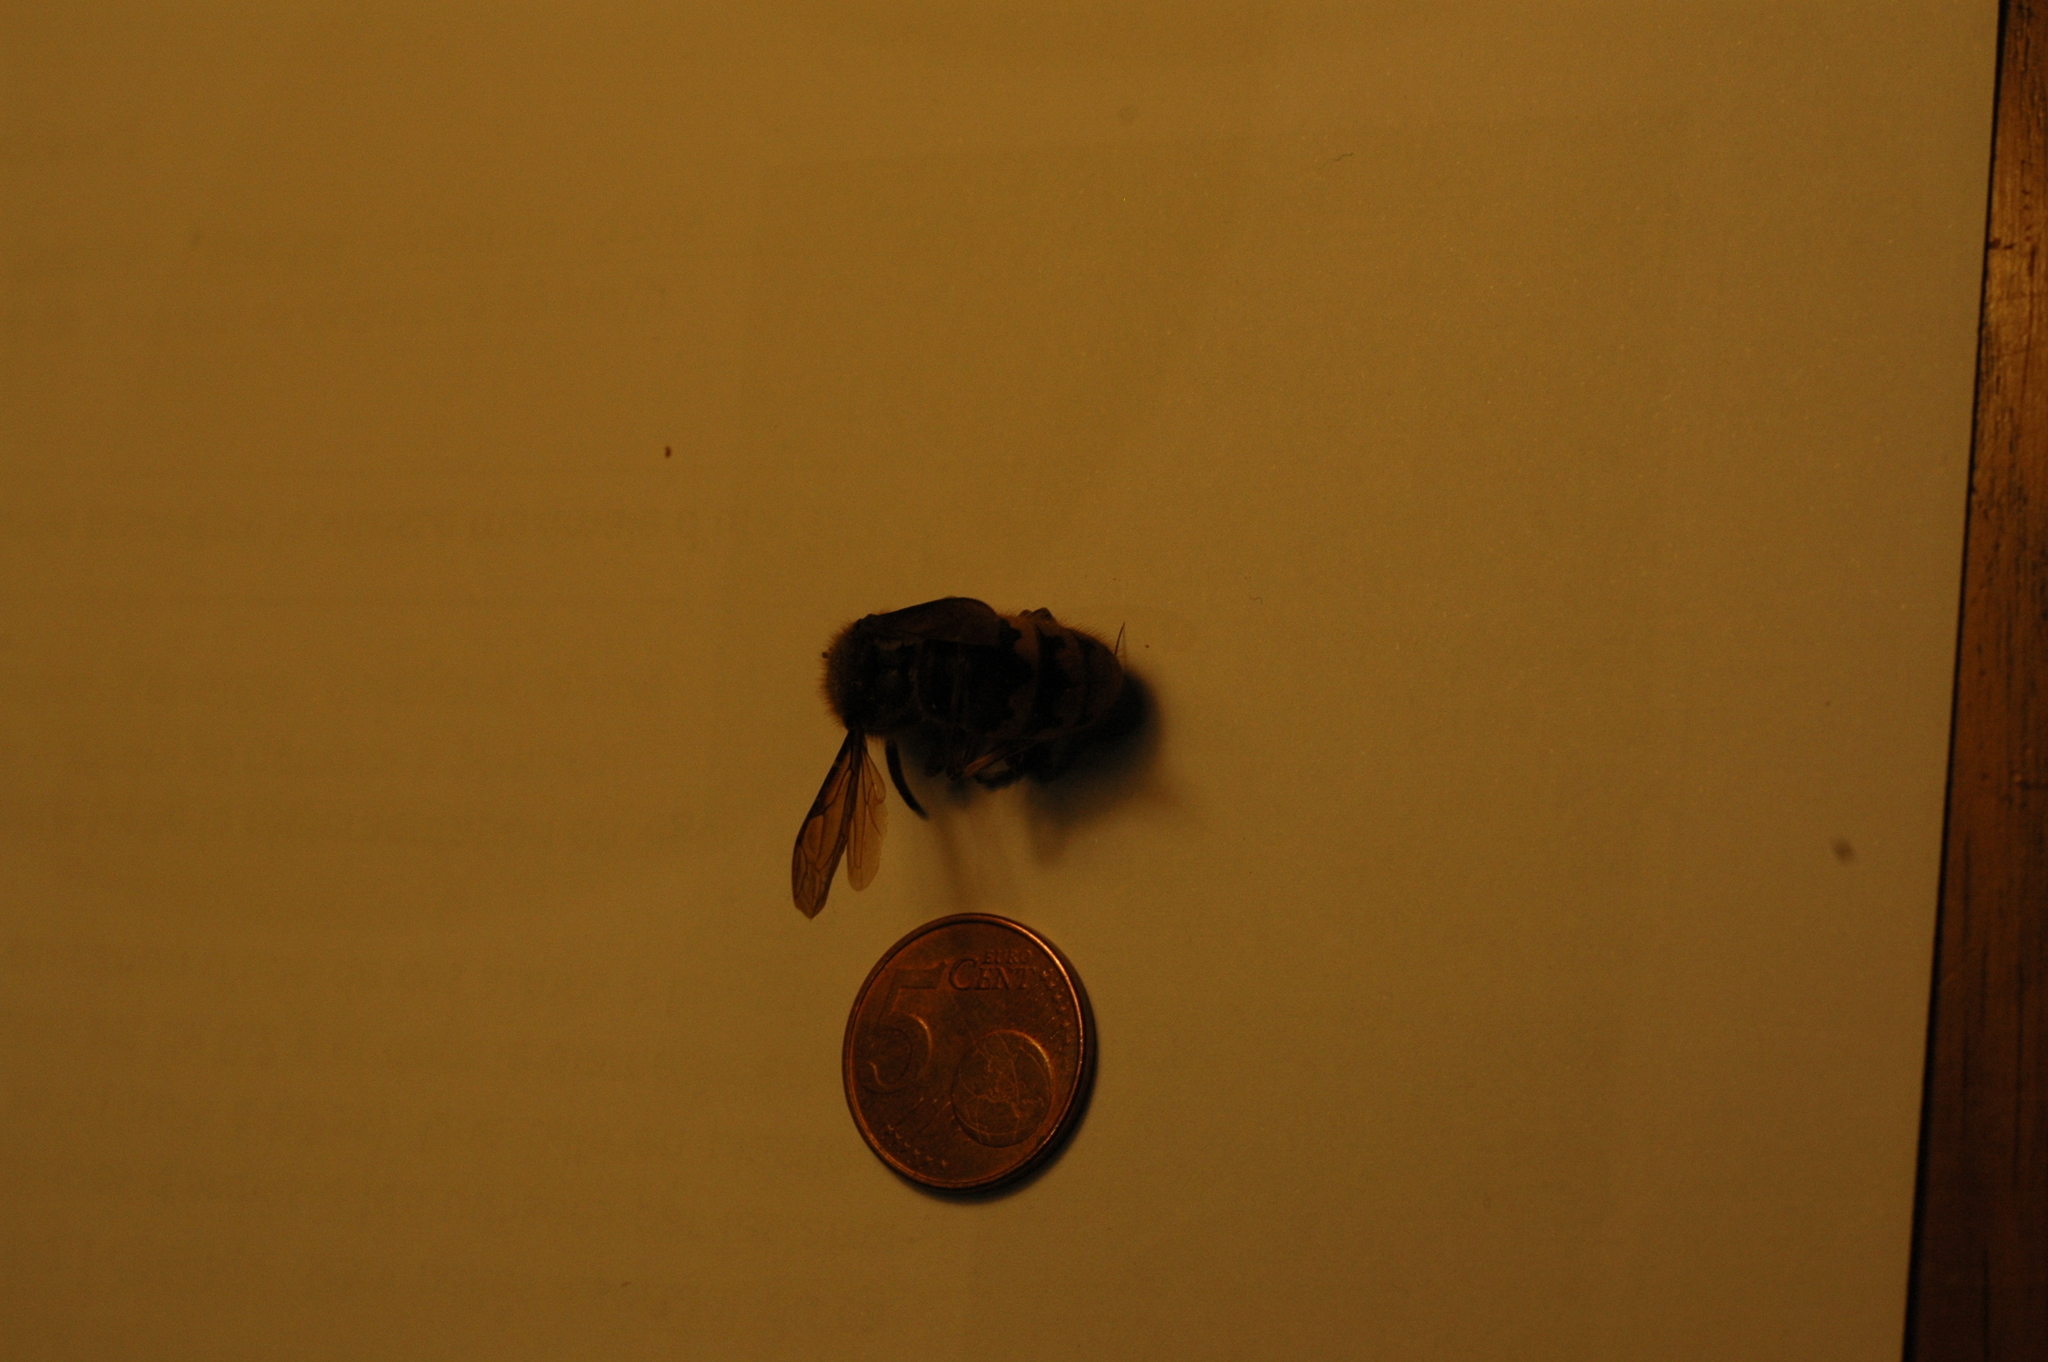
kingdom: Animalia
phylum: Arthropoda
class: Insecta
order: Hymenoptera
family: Vespidae
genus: Vespa
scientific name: Vespa crabro
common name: Hornet
